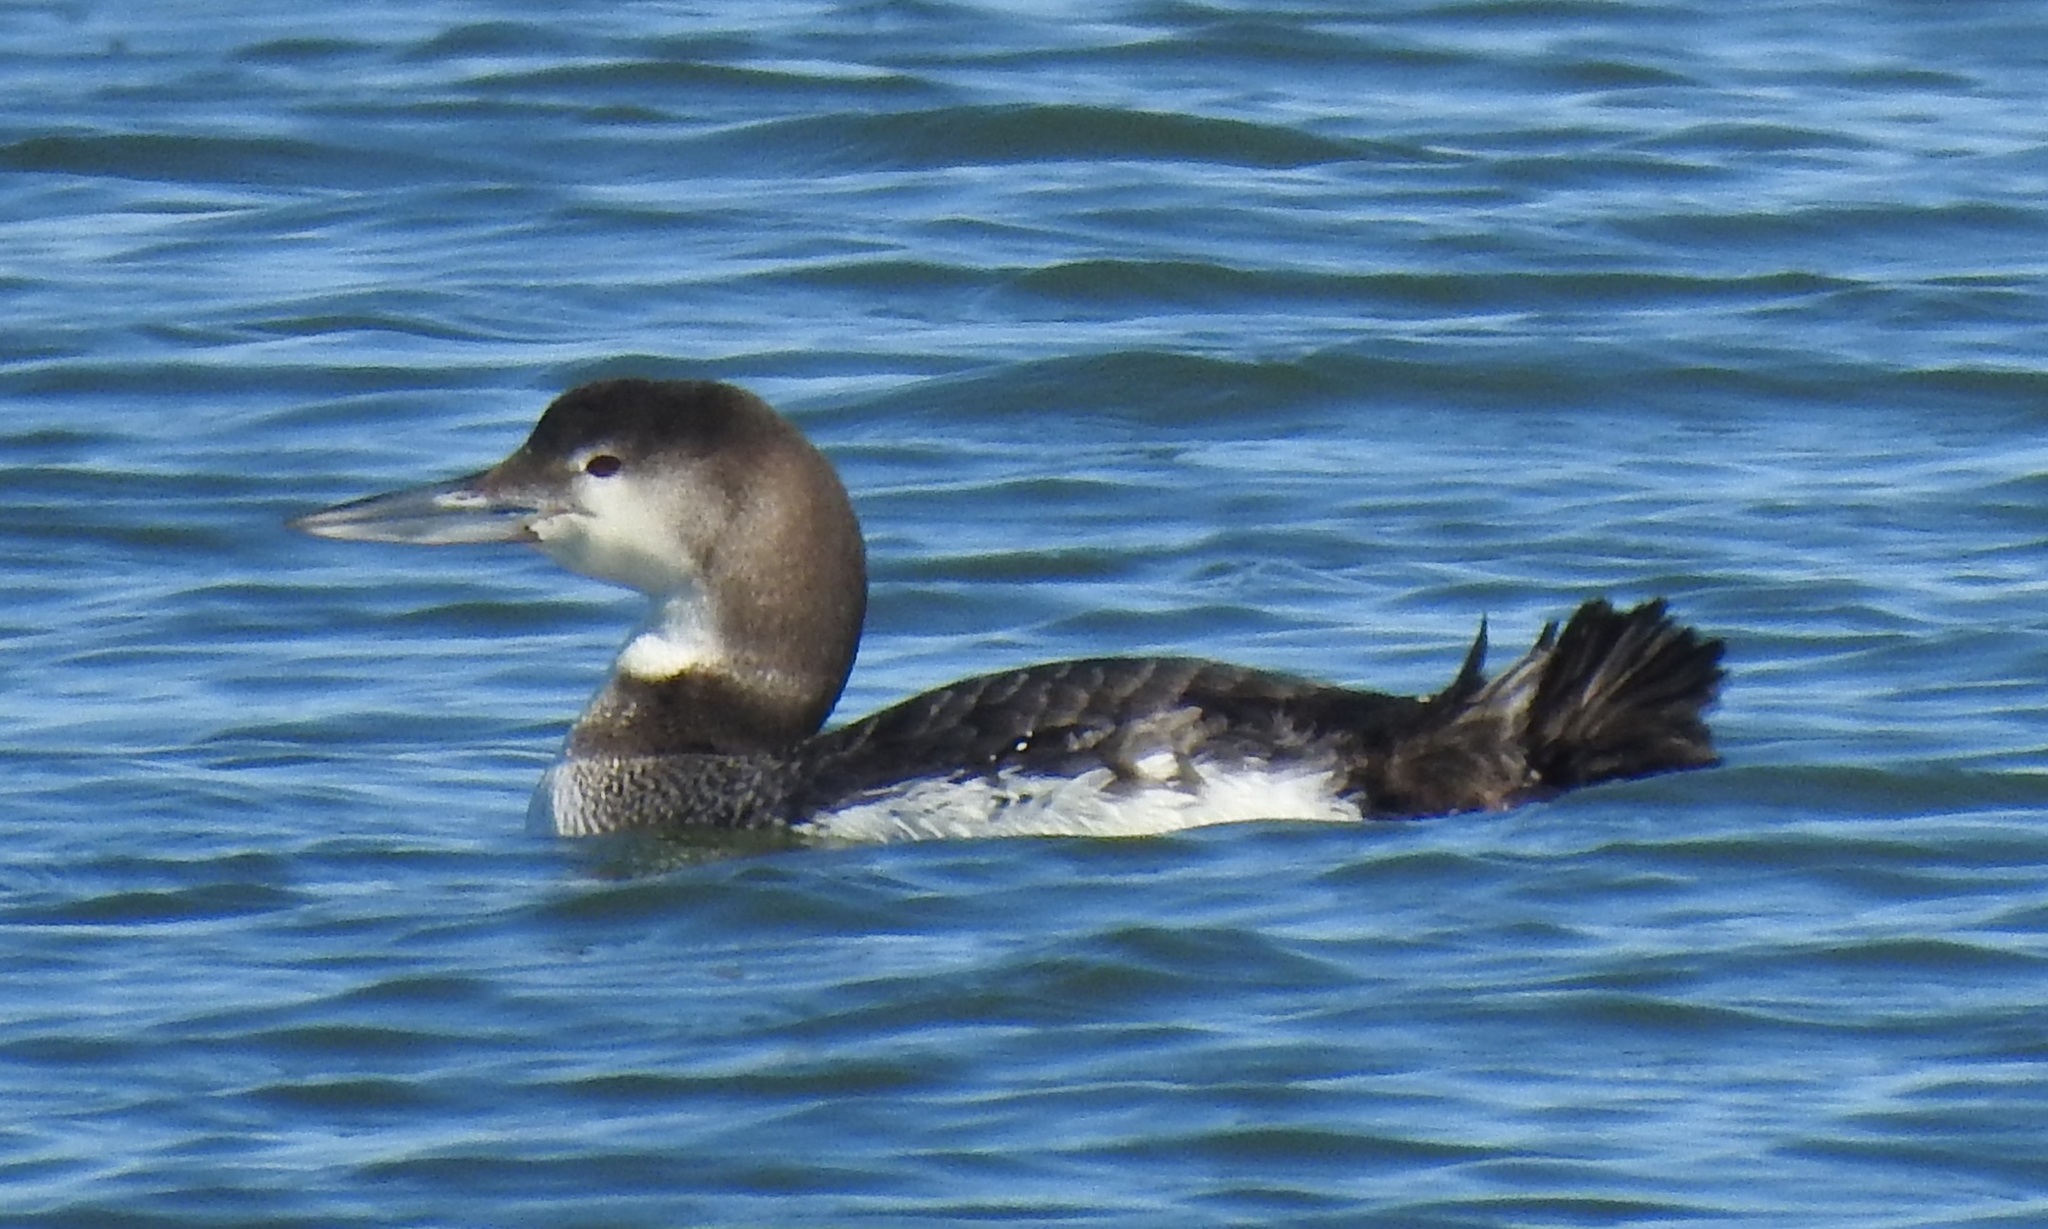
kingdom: Animalia
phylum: Chordata
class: Aves
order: Gaviiformes
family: Gaviidae
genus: Gavia
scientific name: Gavia immer
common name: Common loon
